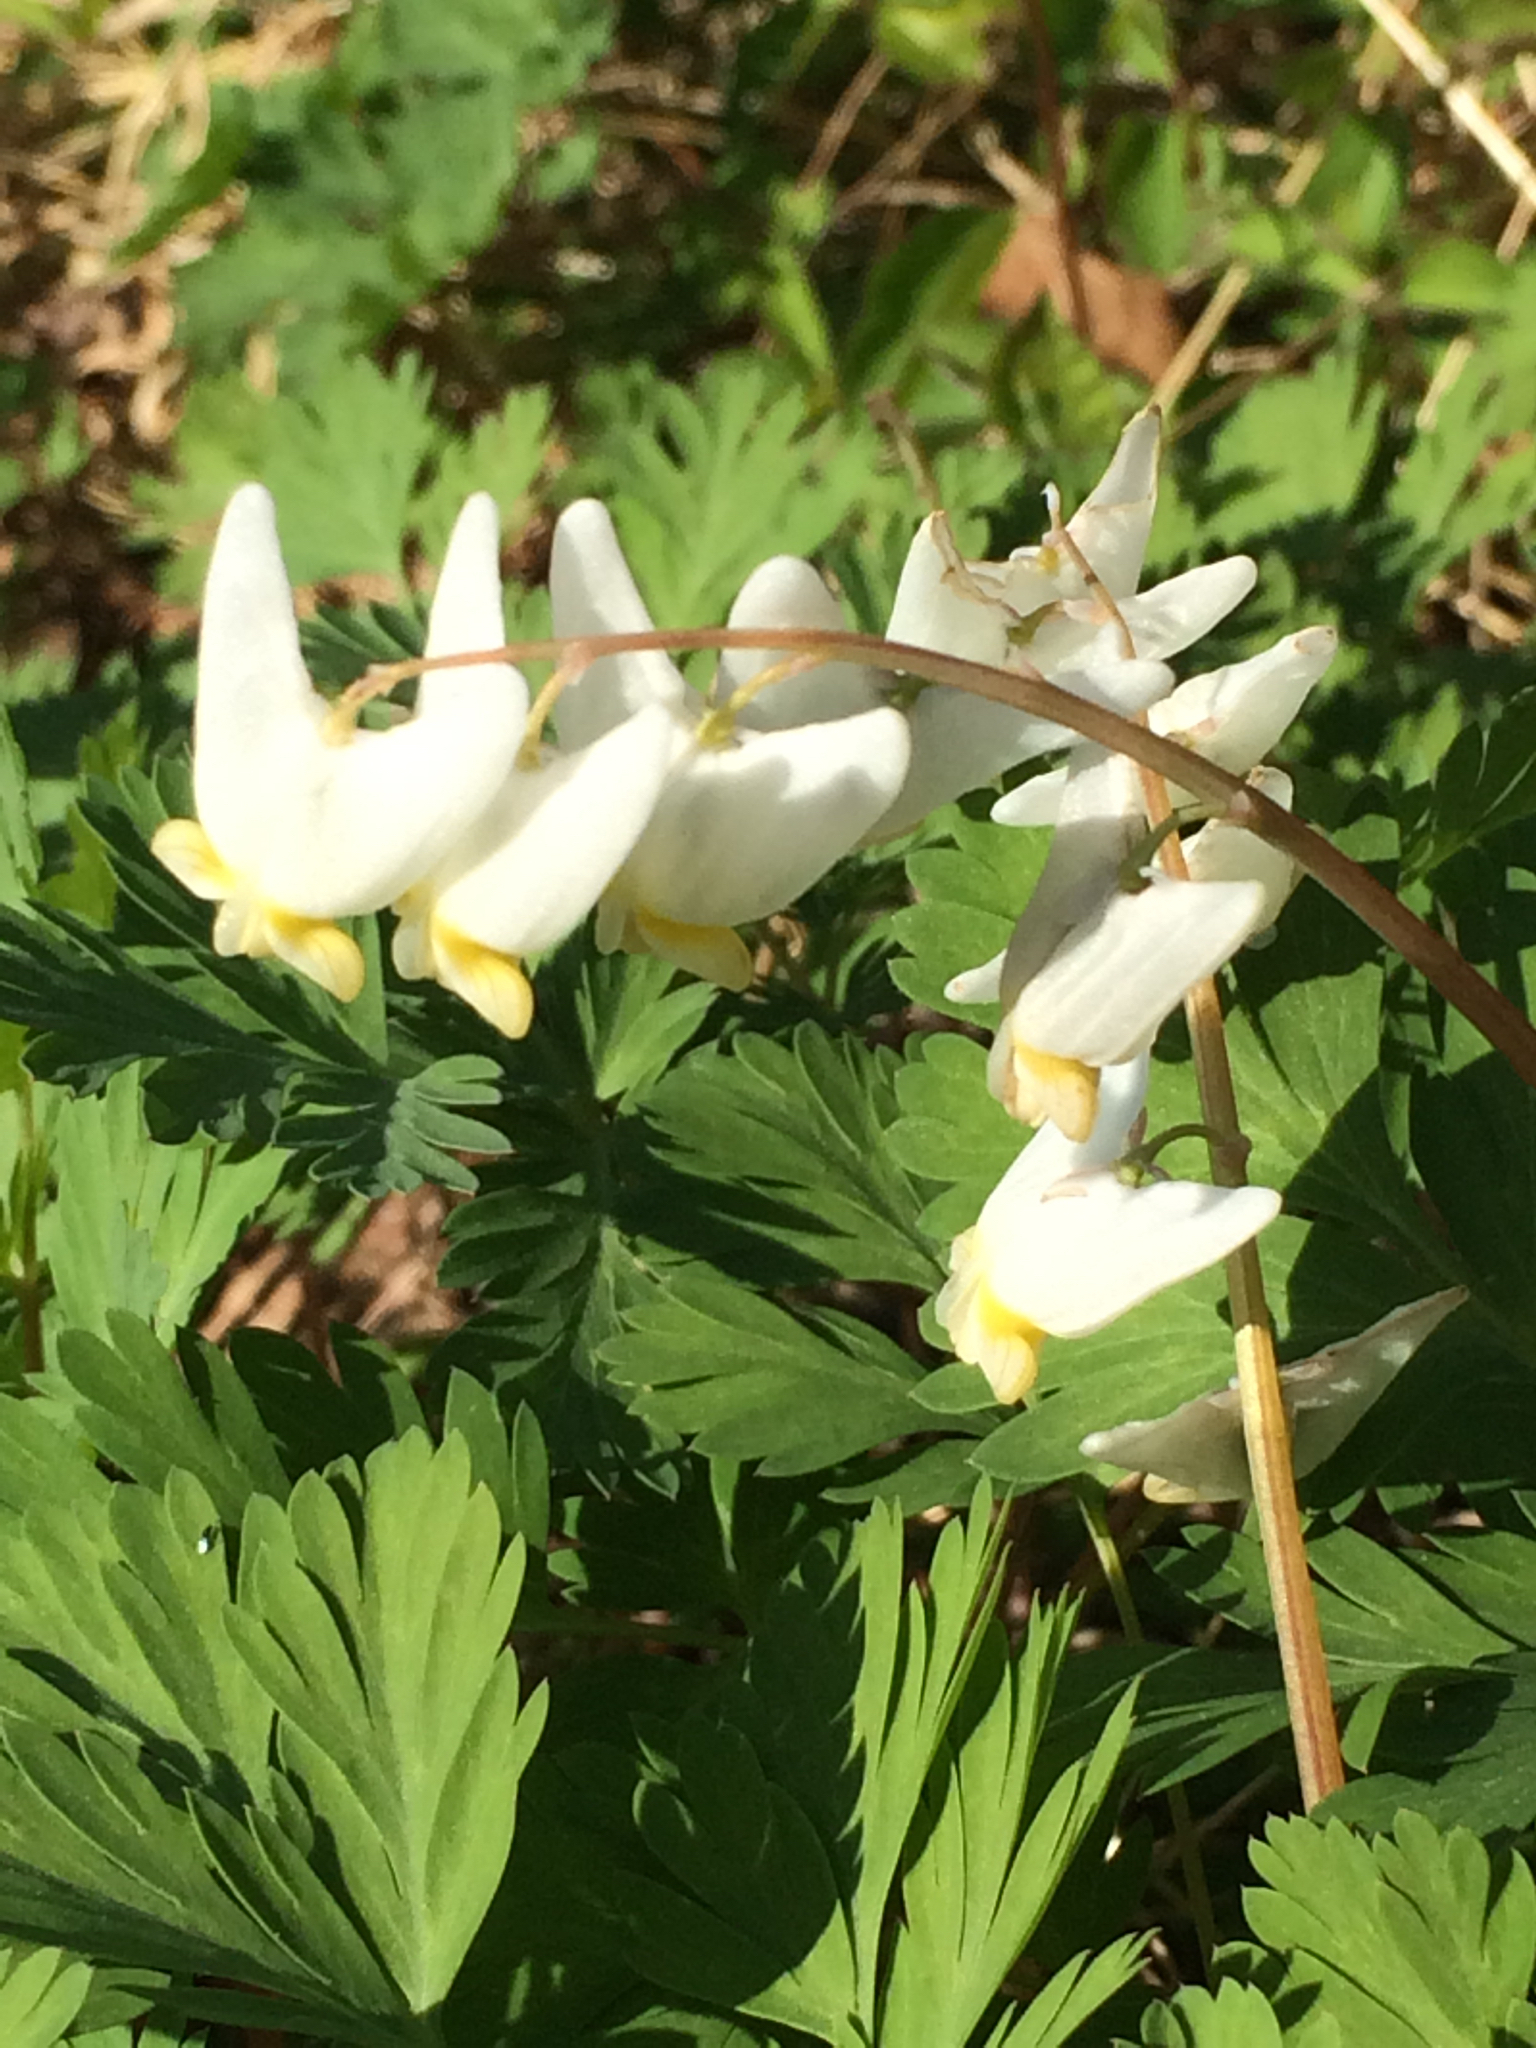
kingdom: Plantae
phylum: Tracheophyta
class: Magnoliopsida
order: Ranunculales
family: Papaveraceae
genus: Dicentra
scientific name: Dicentra cucullaria
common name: Dutchman's breeches
